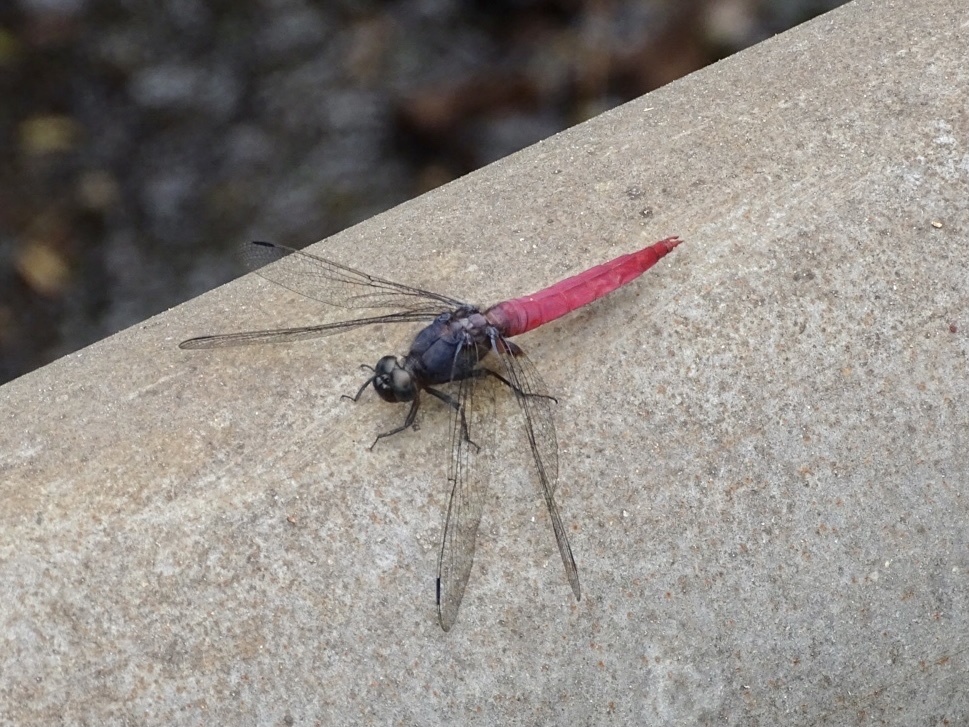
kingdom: Animalia
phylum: Arthropoda
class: Insecta
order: Odonata
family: Libellulidae
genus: Orthetrum
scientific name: Orthetrum pruinosum
